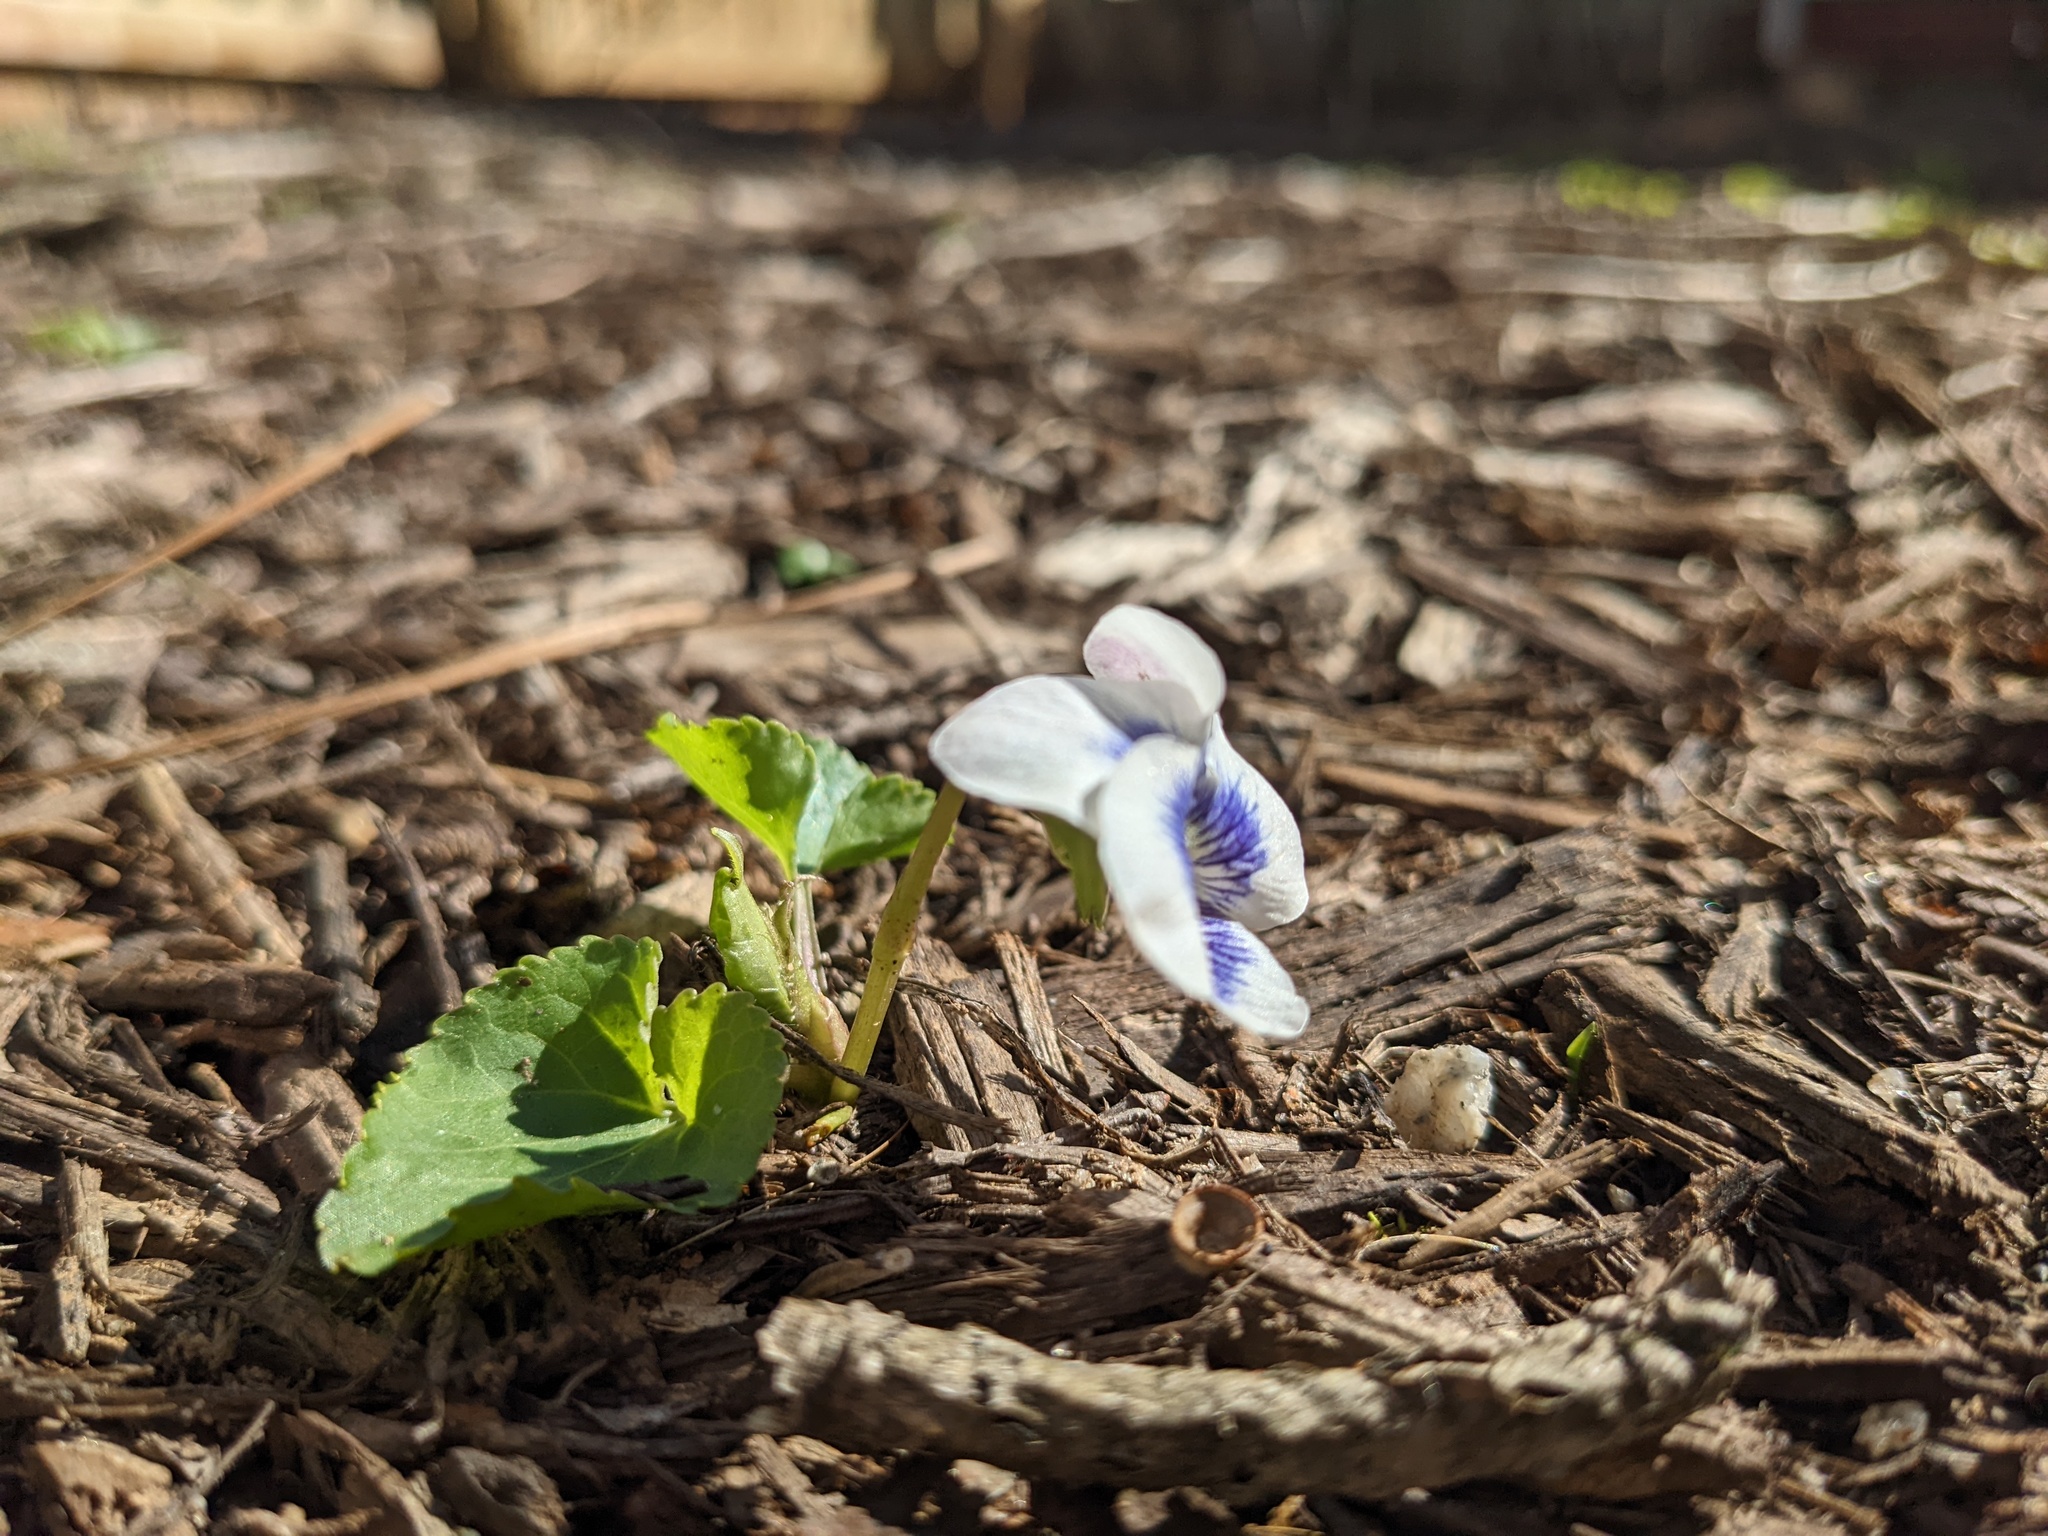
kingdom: Plantae
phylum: Tracheophyta
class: Magnoliopsida
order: Malpighiales
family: Violaceae
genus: Viola
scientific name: Viola sororia
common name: Dooryard violet
